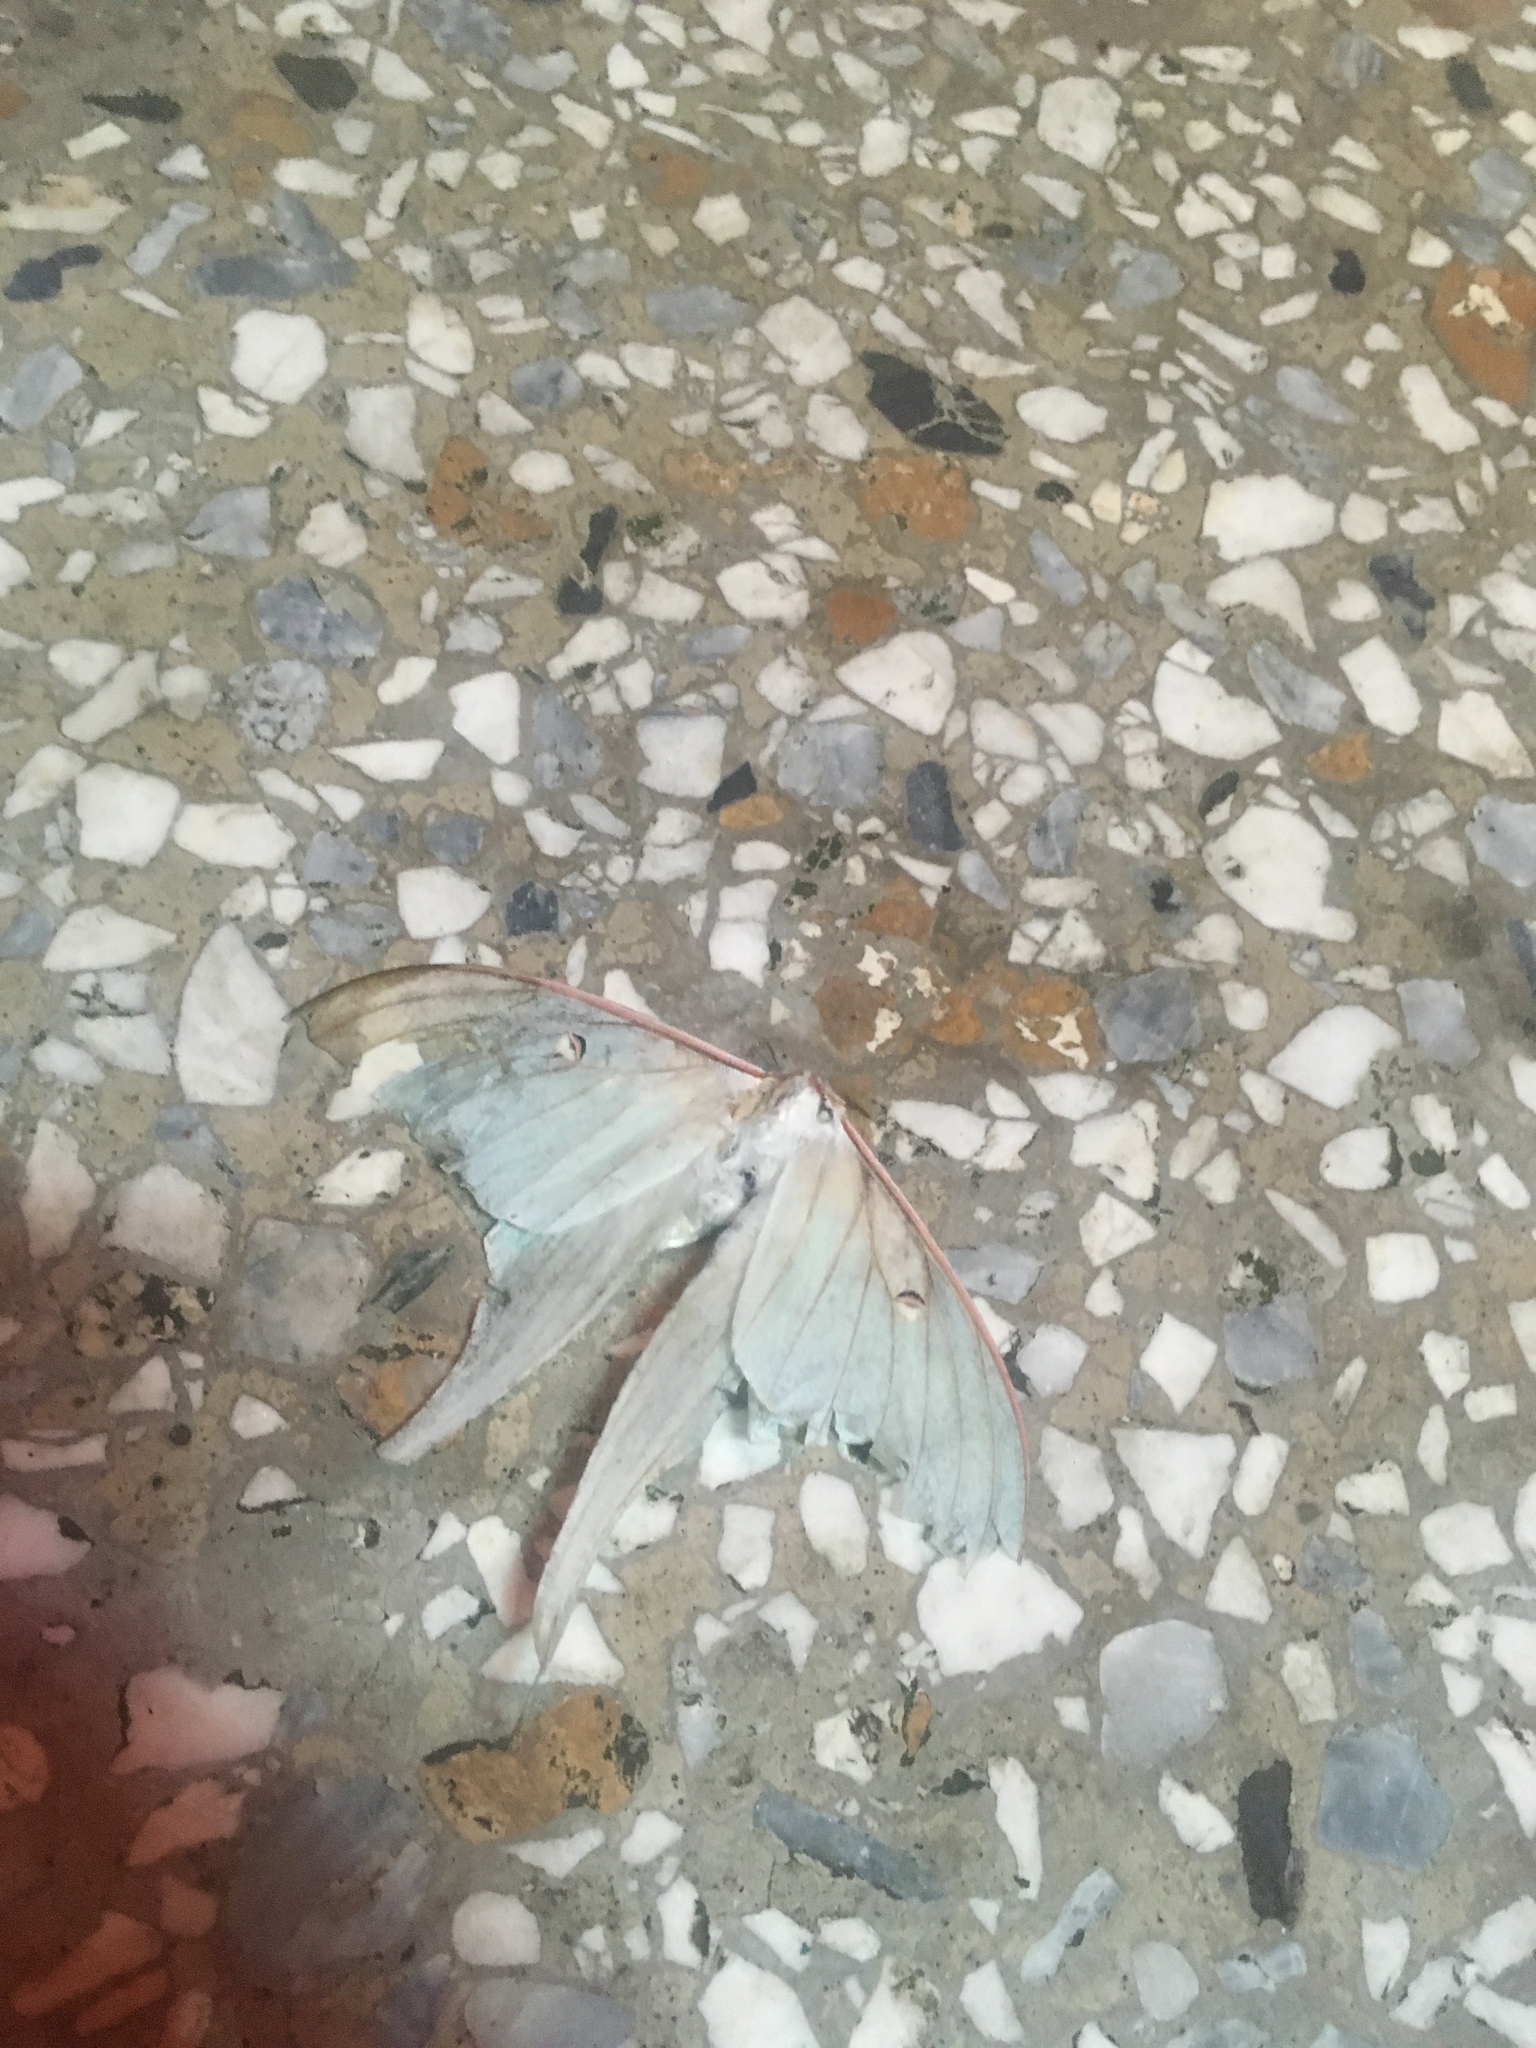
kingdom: Animalia
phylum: Arthropoda
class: Insecta
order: Lepidoptera
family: Saturniidae
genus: Actias
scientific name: Actias neidhoeferi
